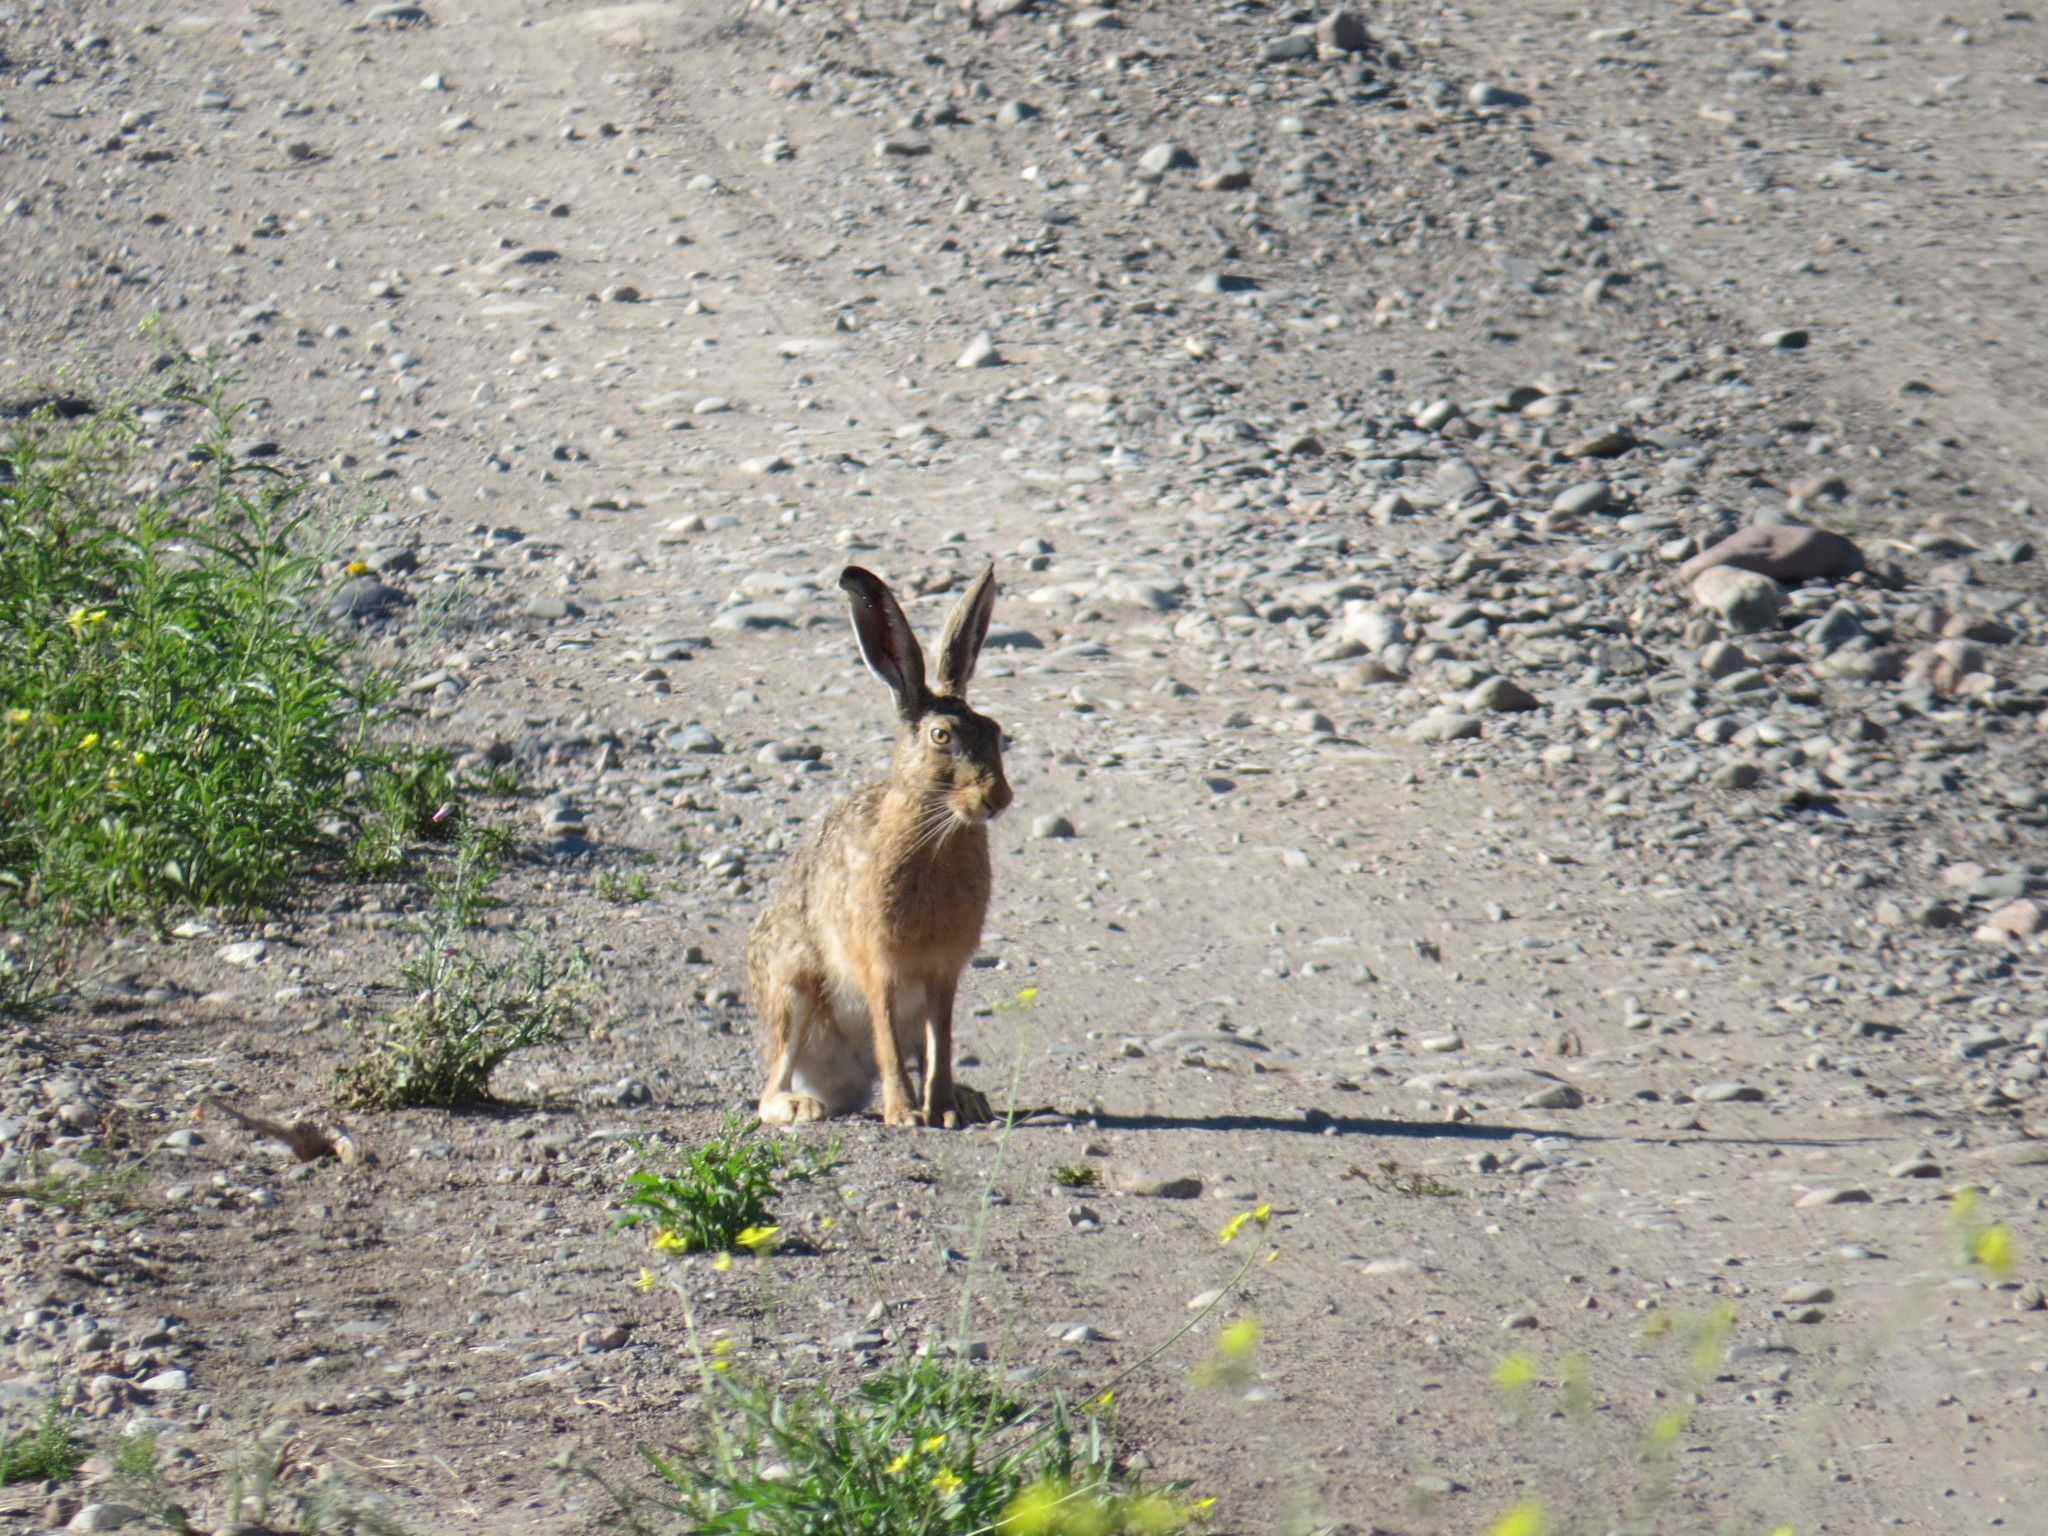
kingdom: Animalia
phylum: Chordata
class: Mammalia
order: Lagomorpha
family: Leporidae
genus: Lepus
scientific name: Lepus europaeus
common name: European hare
